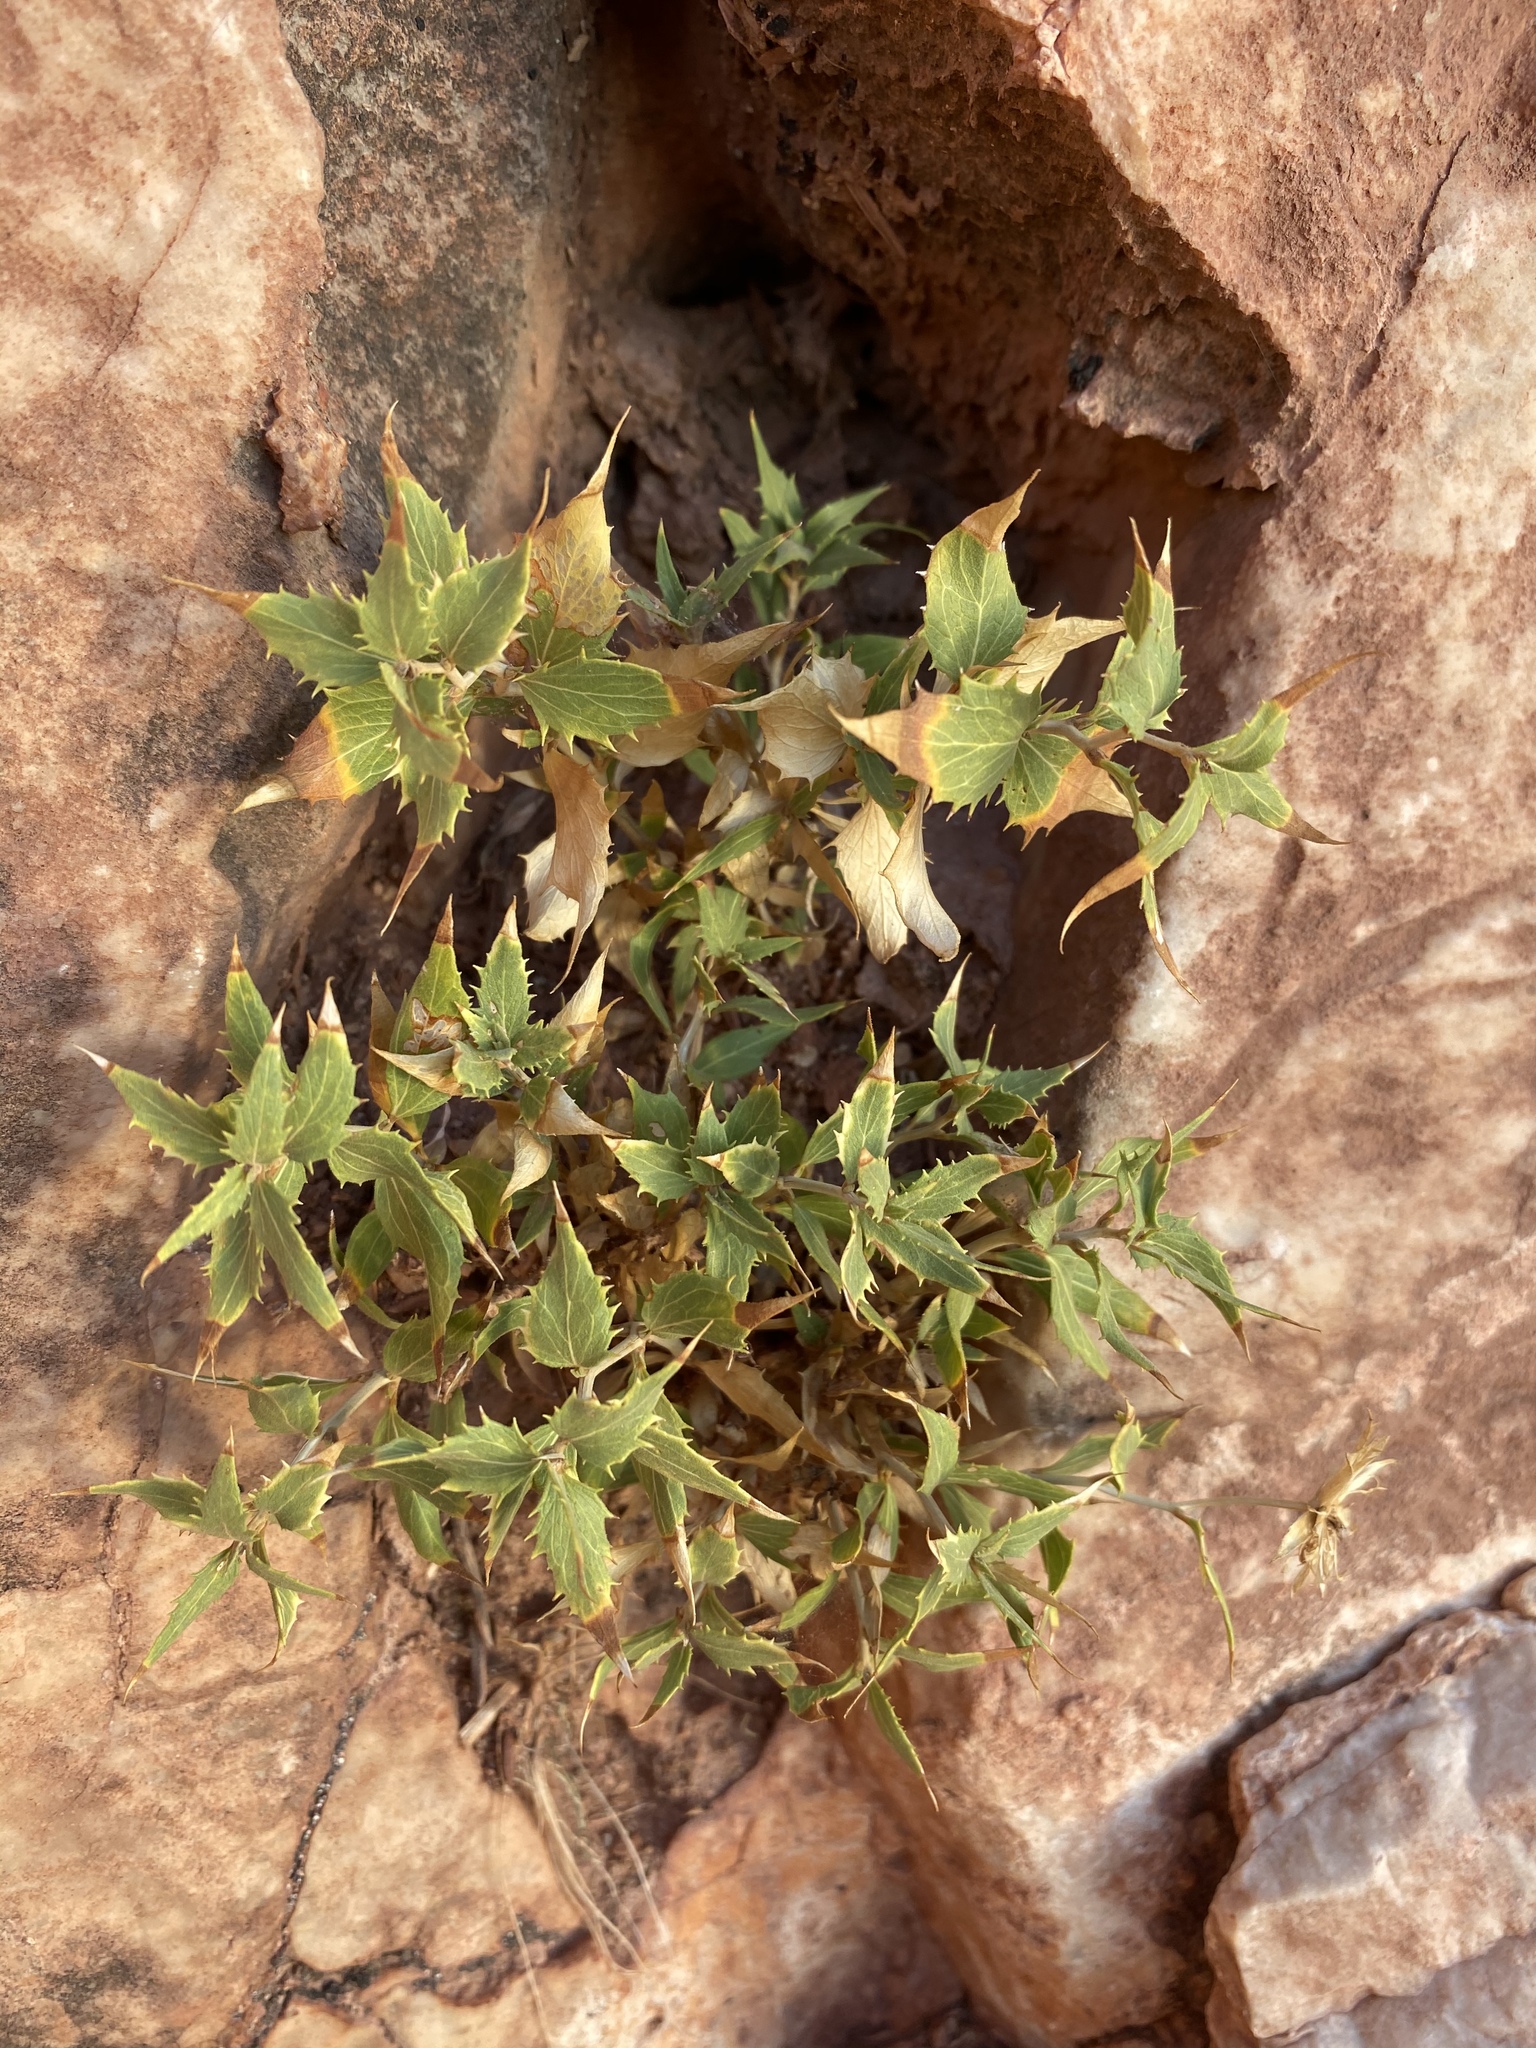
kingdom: Plantae
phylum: Tracheophyta
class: Magnoliopsida
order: Asterales
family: Asteraceae
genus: Brickellia
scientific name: Brickellia atractyloides
